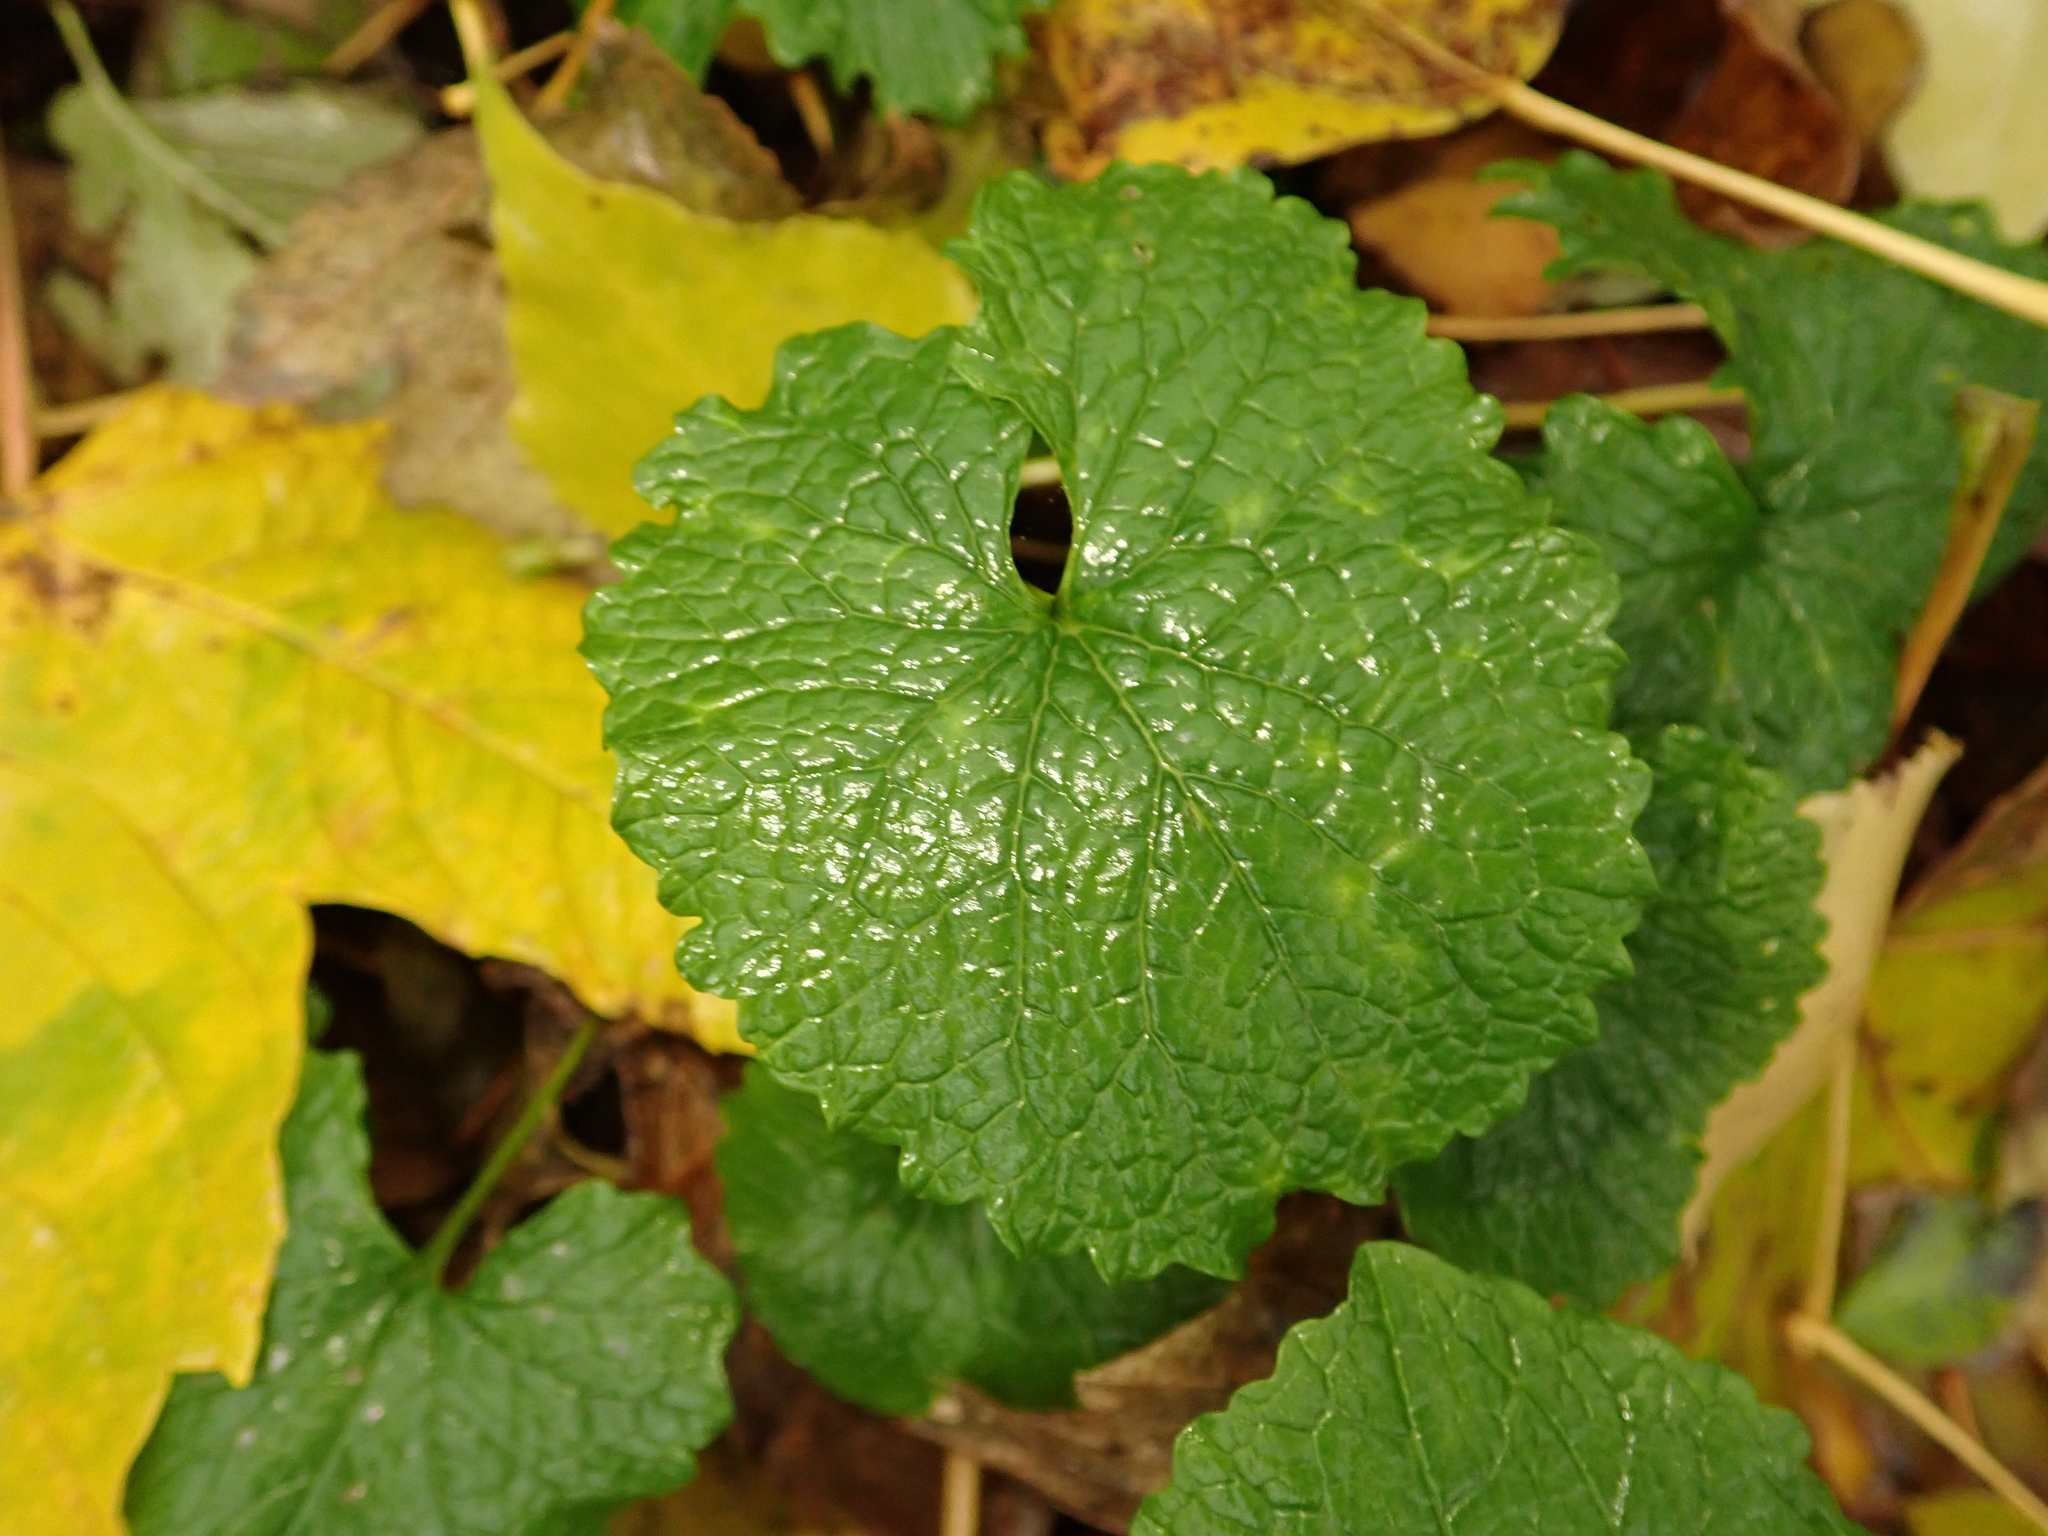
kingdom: Plantae
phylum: Tracheophyta
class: Magnoliopsida
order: Brassicales
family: Brassicaceae
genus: Alliaria
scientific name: Alliaria petiolata
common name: Garlic mustard
